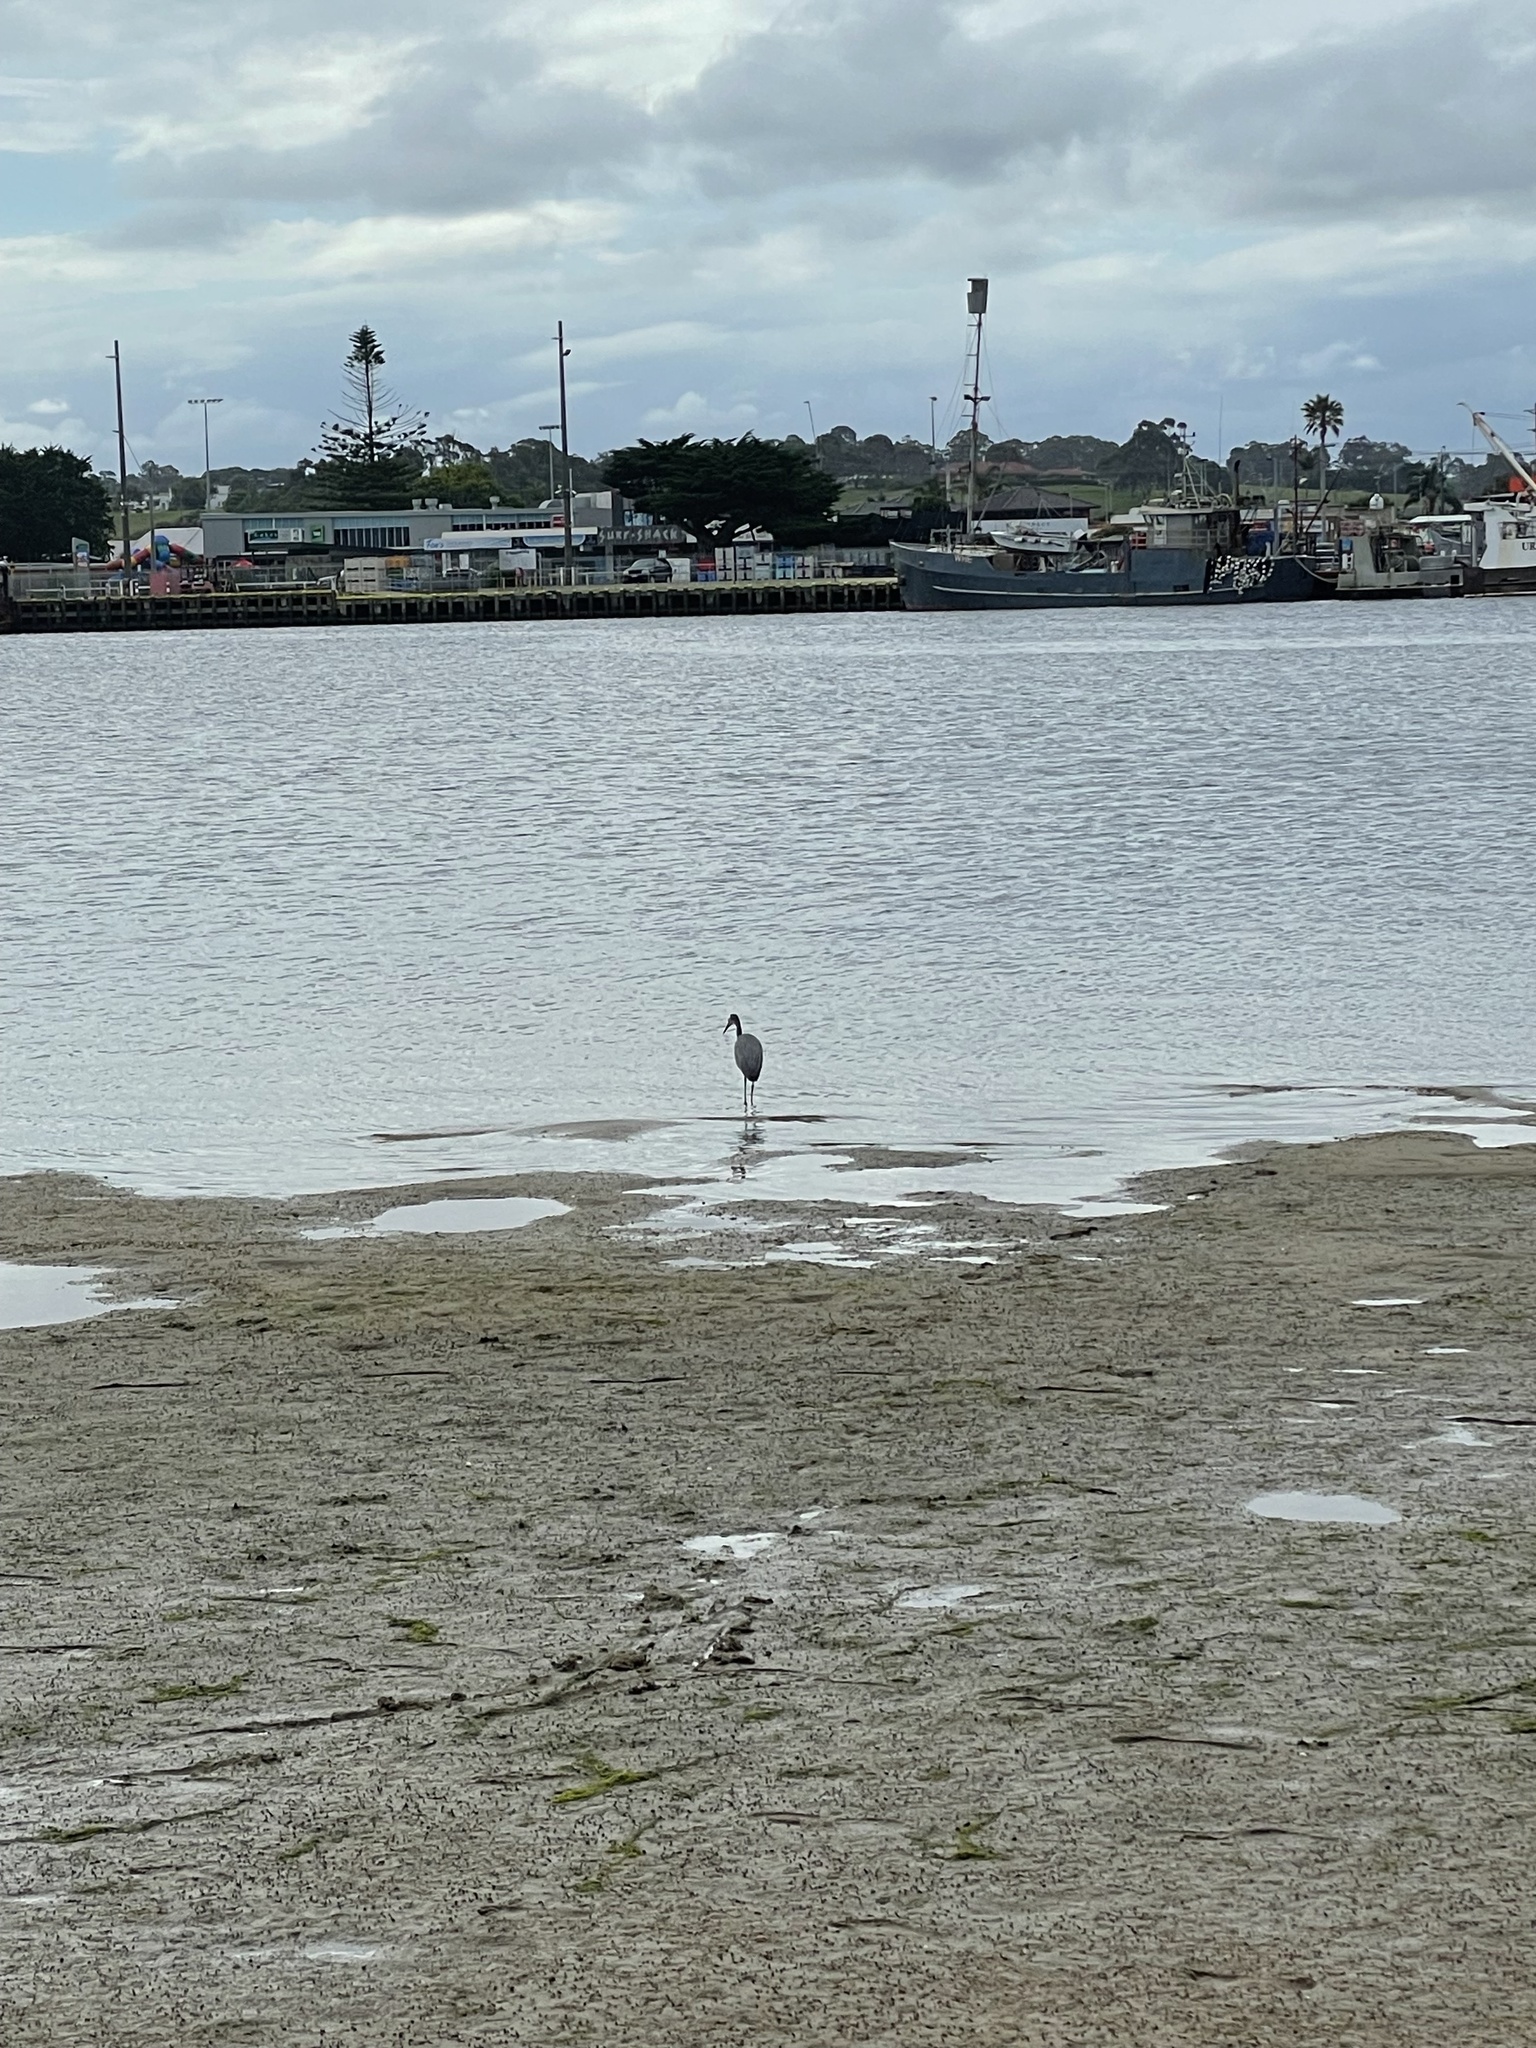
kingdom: Animalia
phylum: Chordata
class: Aves
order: Pelecaniformes
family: Ardeidae
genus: Egretta
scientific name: Egretta novaehollandiae
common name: White-faced heron
